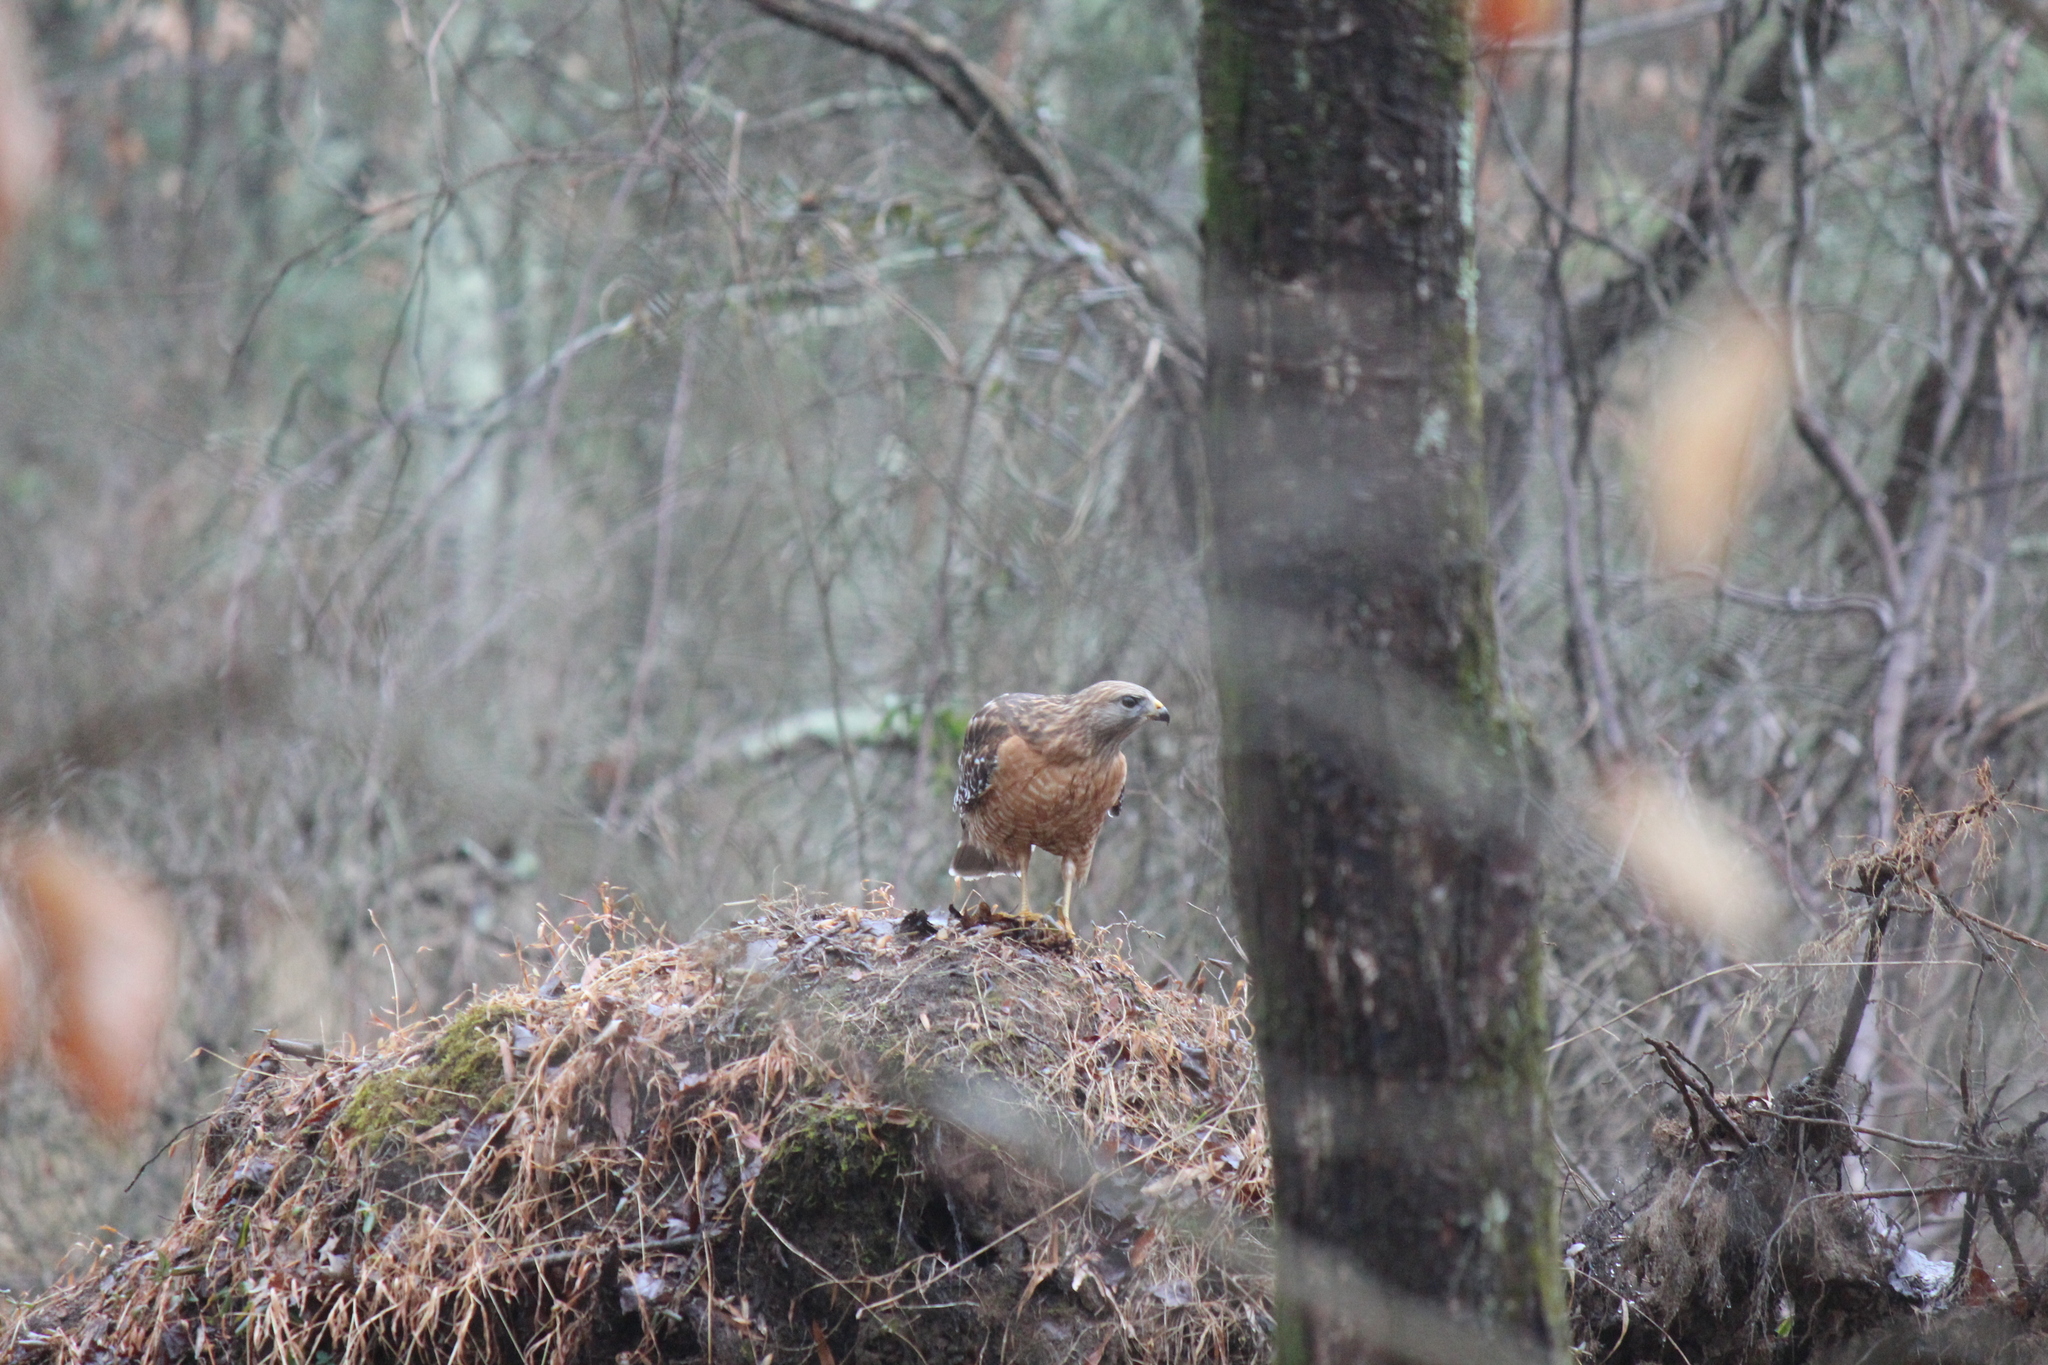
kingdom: Animalia
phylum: Chordata
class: Aves
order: Accipitriformes
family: Accipitridae
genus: Buteo
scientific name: Buteo lineatus
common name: Red-shouldered hawk
